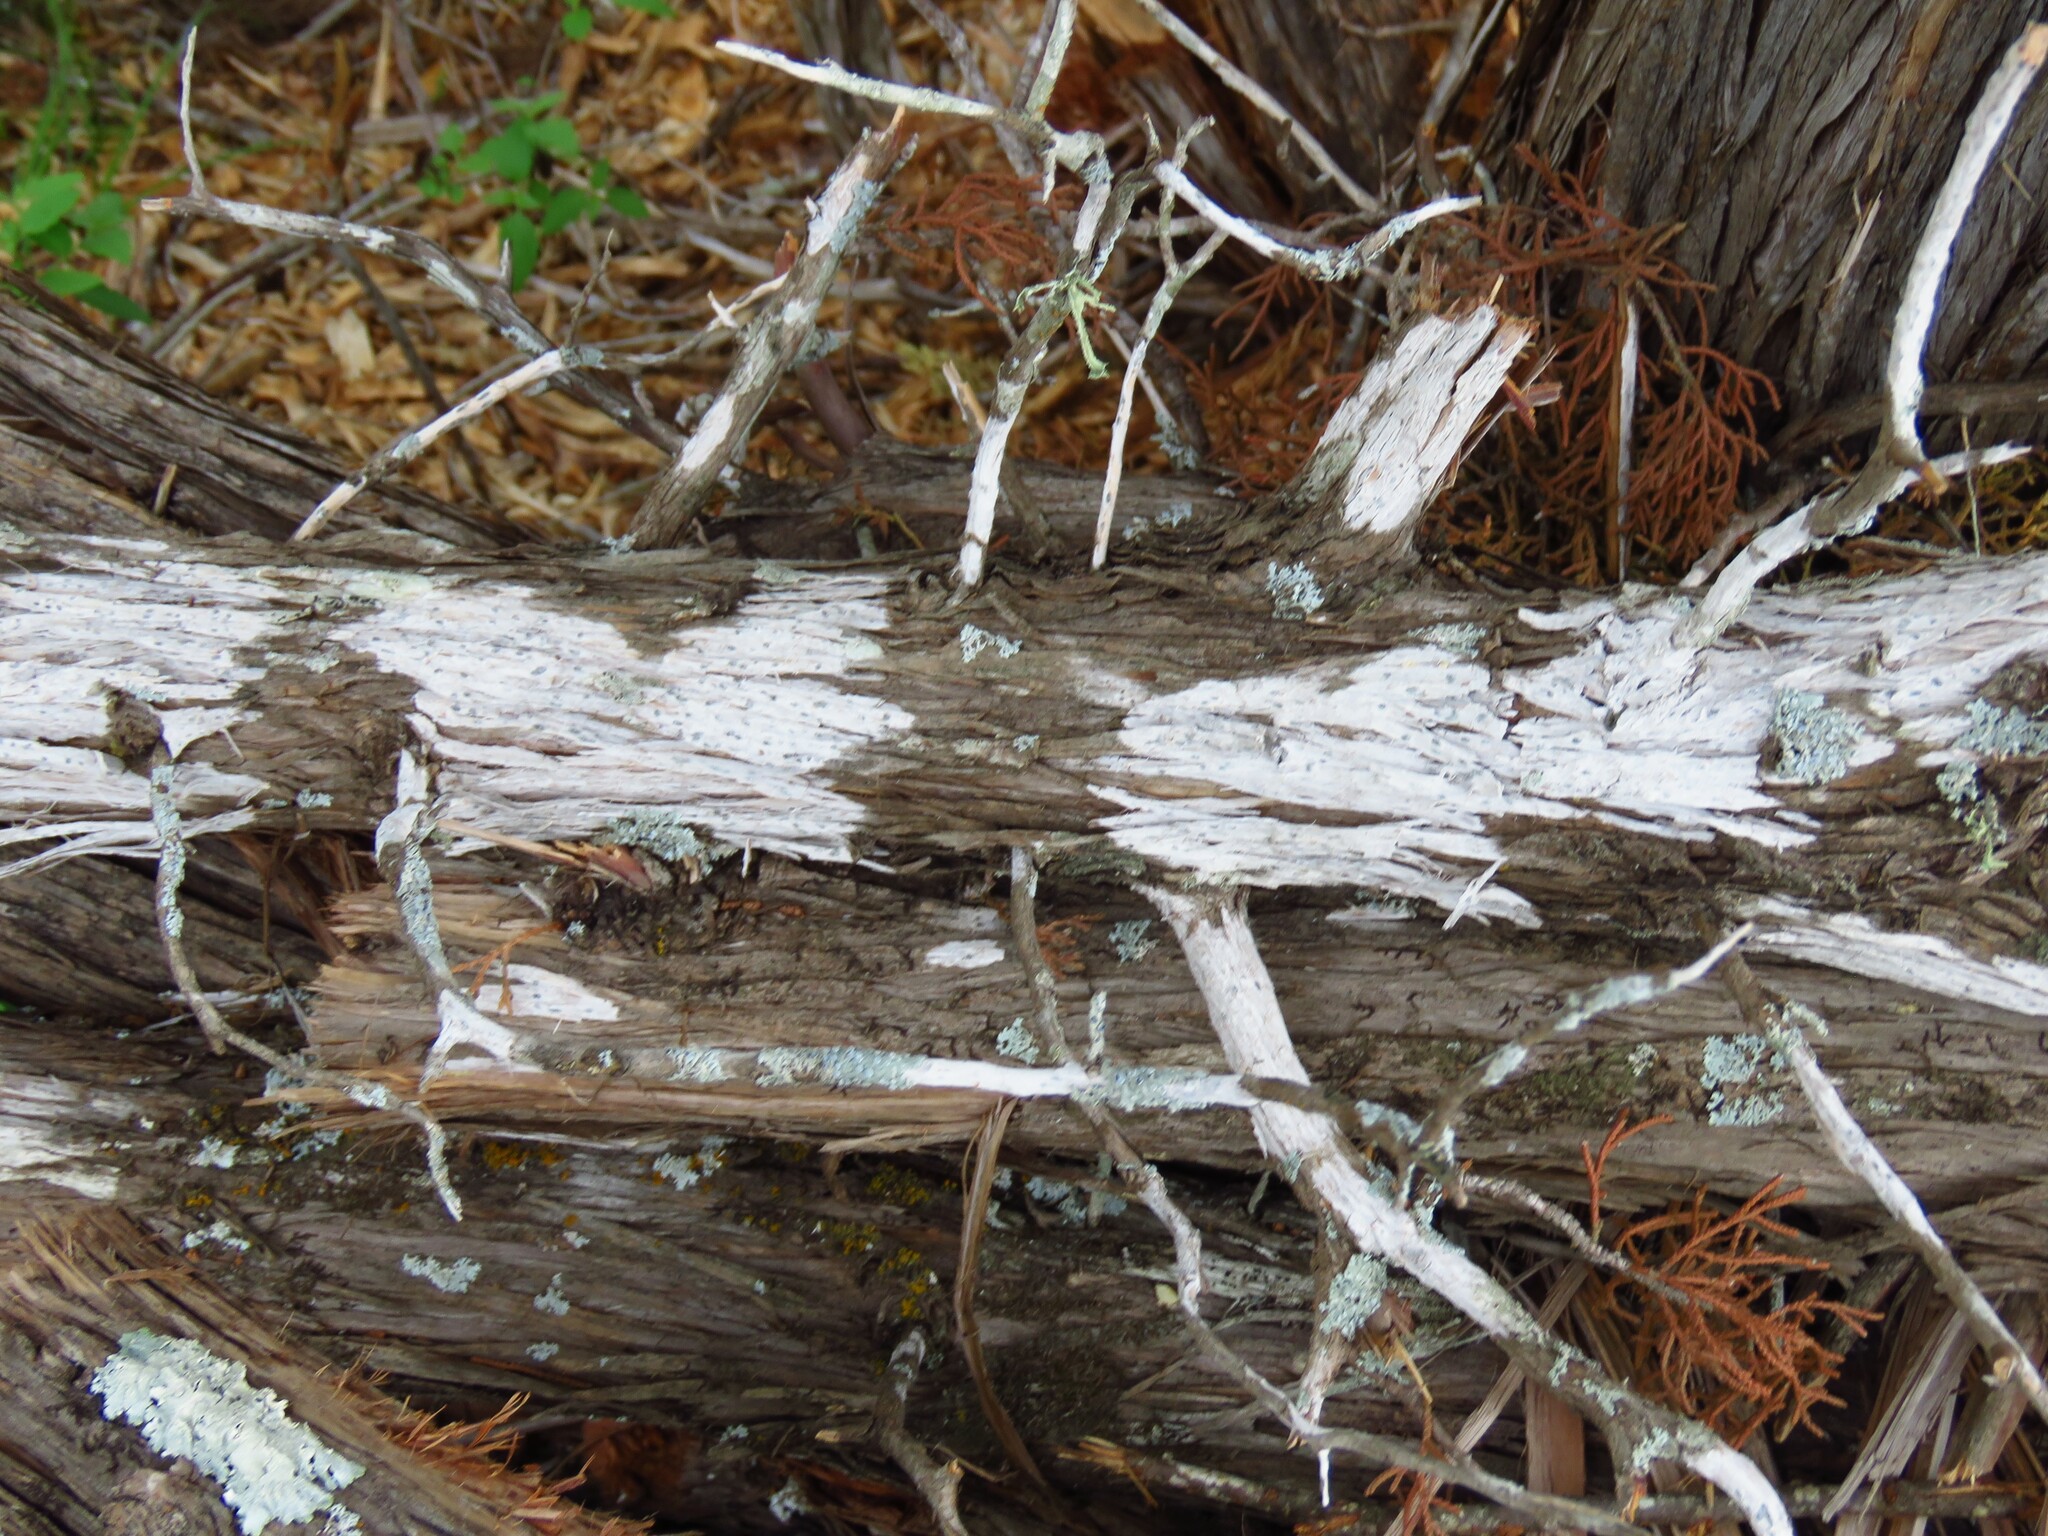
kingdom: Fungi
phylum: Ascomycota
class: Lecanoromycetes
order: Ostropales
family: Stictidaceae
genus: Robergea
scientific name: Robergea
